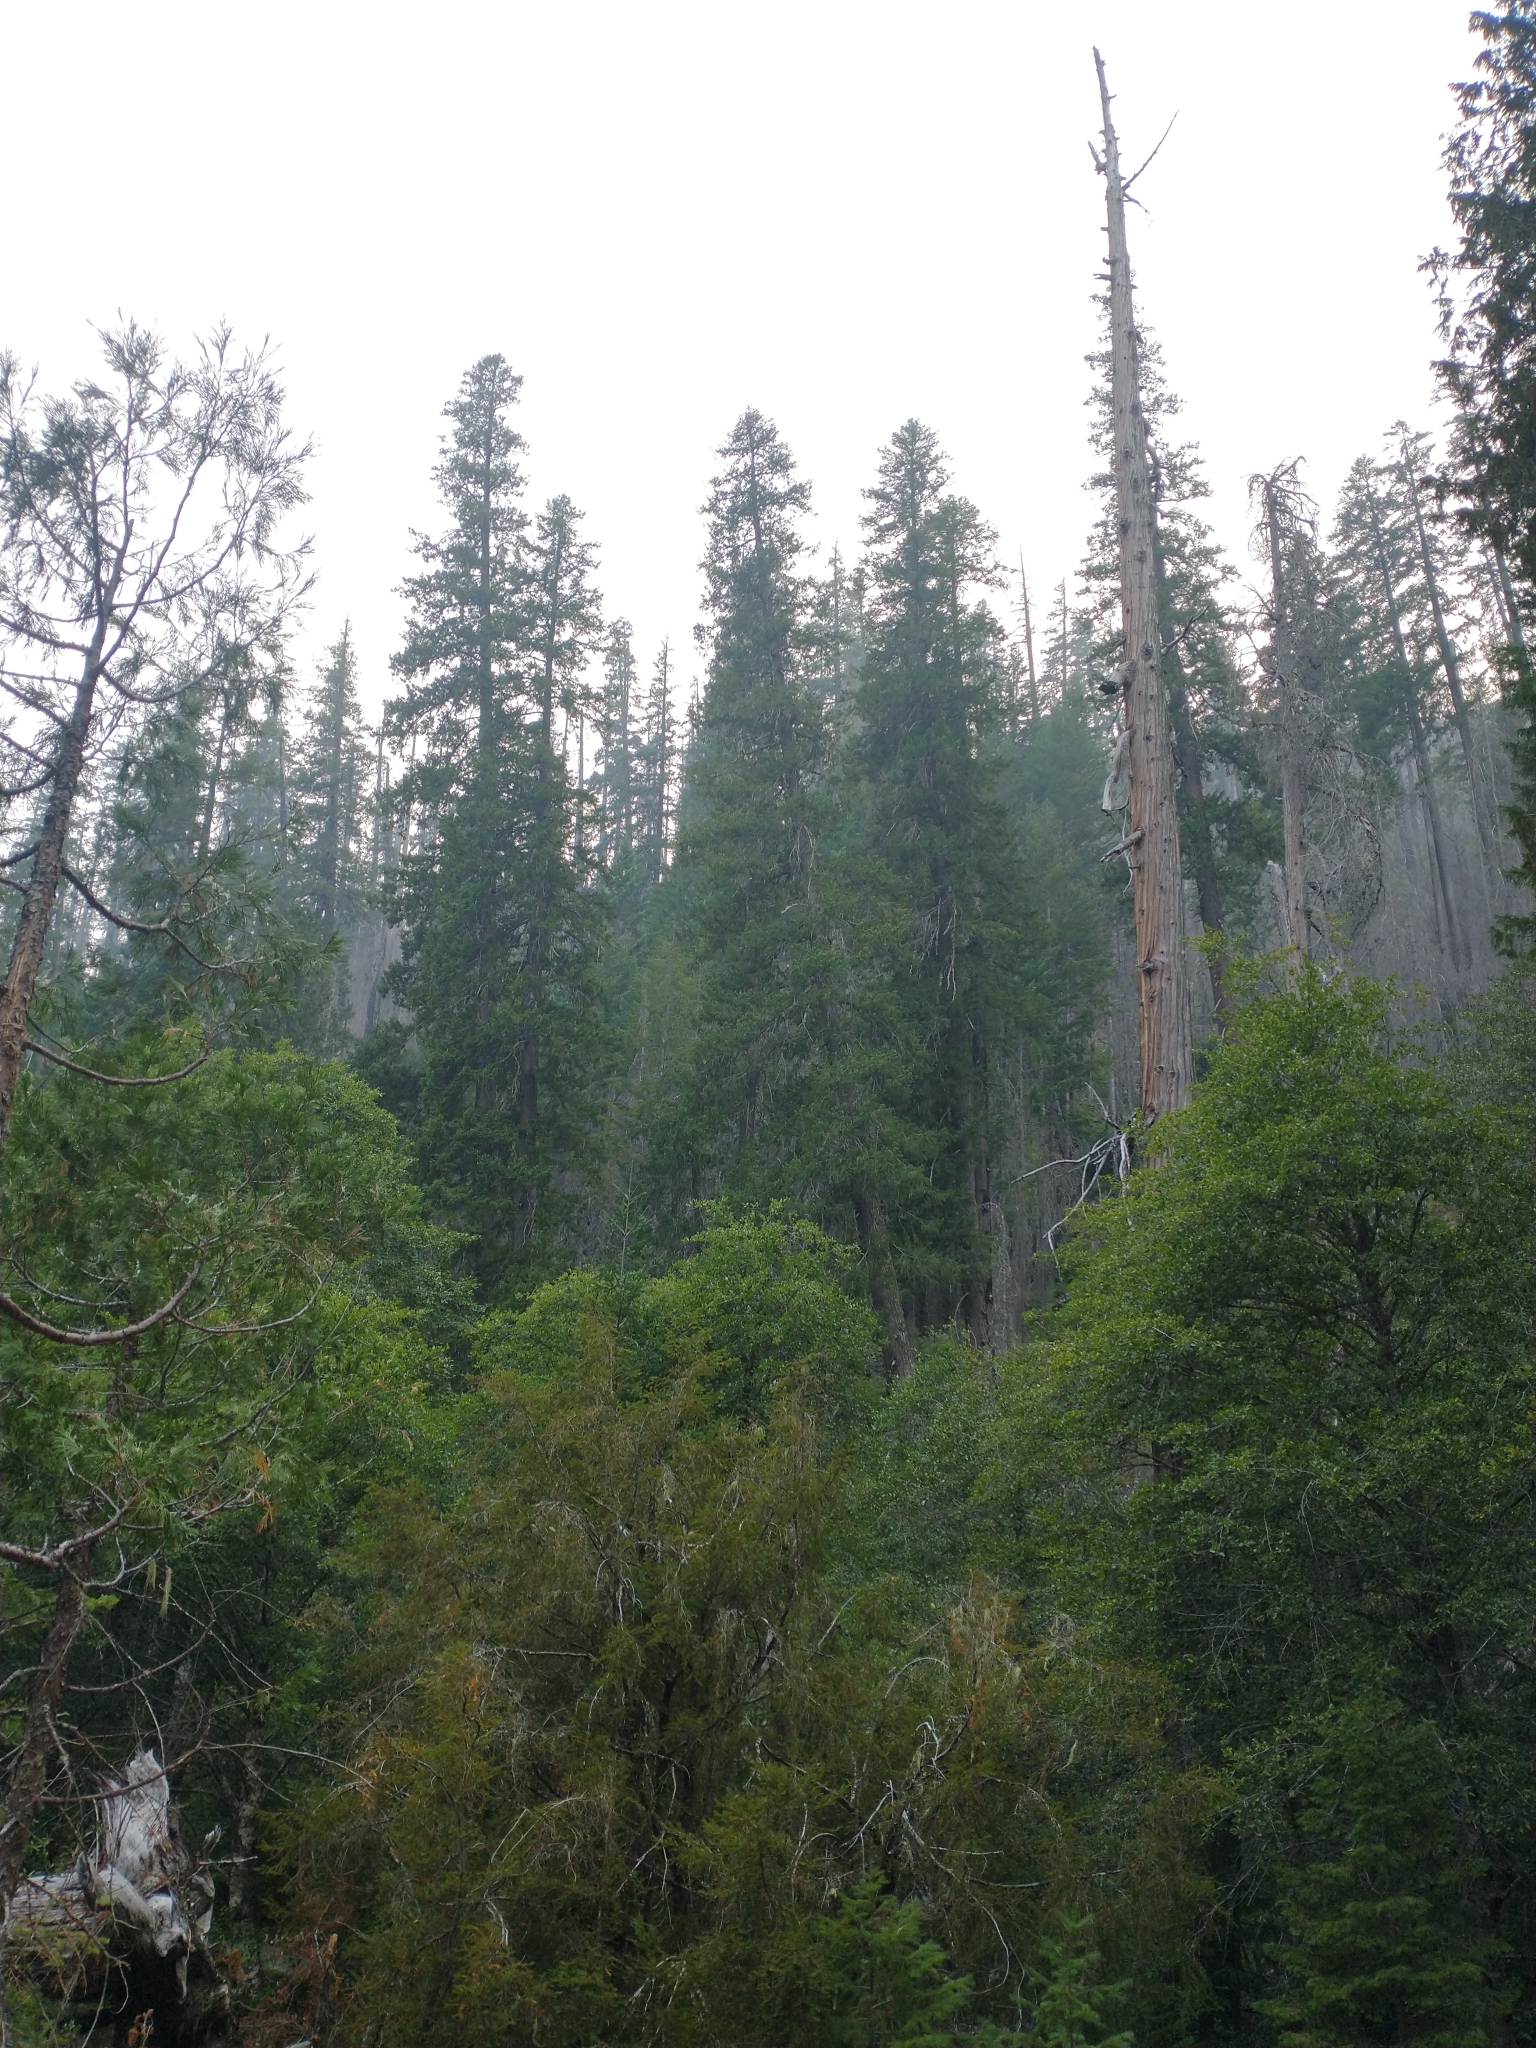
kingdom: Plantae
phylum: Tracheophyta
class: Pinopsida
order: Pinales
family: Taxaceae
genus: Taxus
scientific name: Taxus brevifolia
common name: Pacific yew
